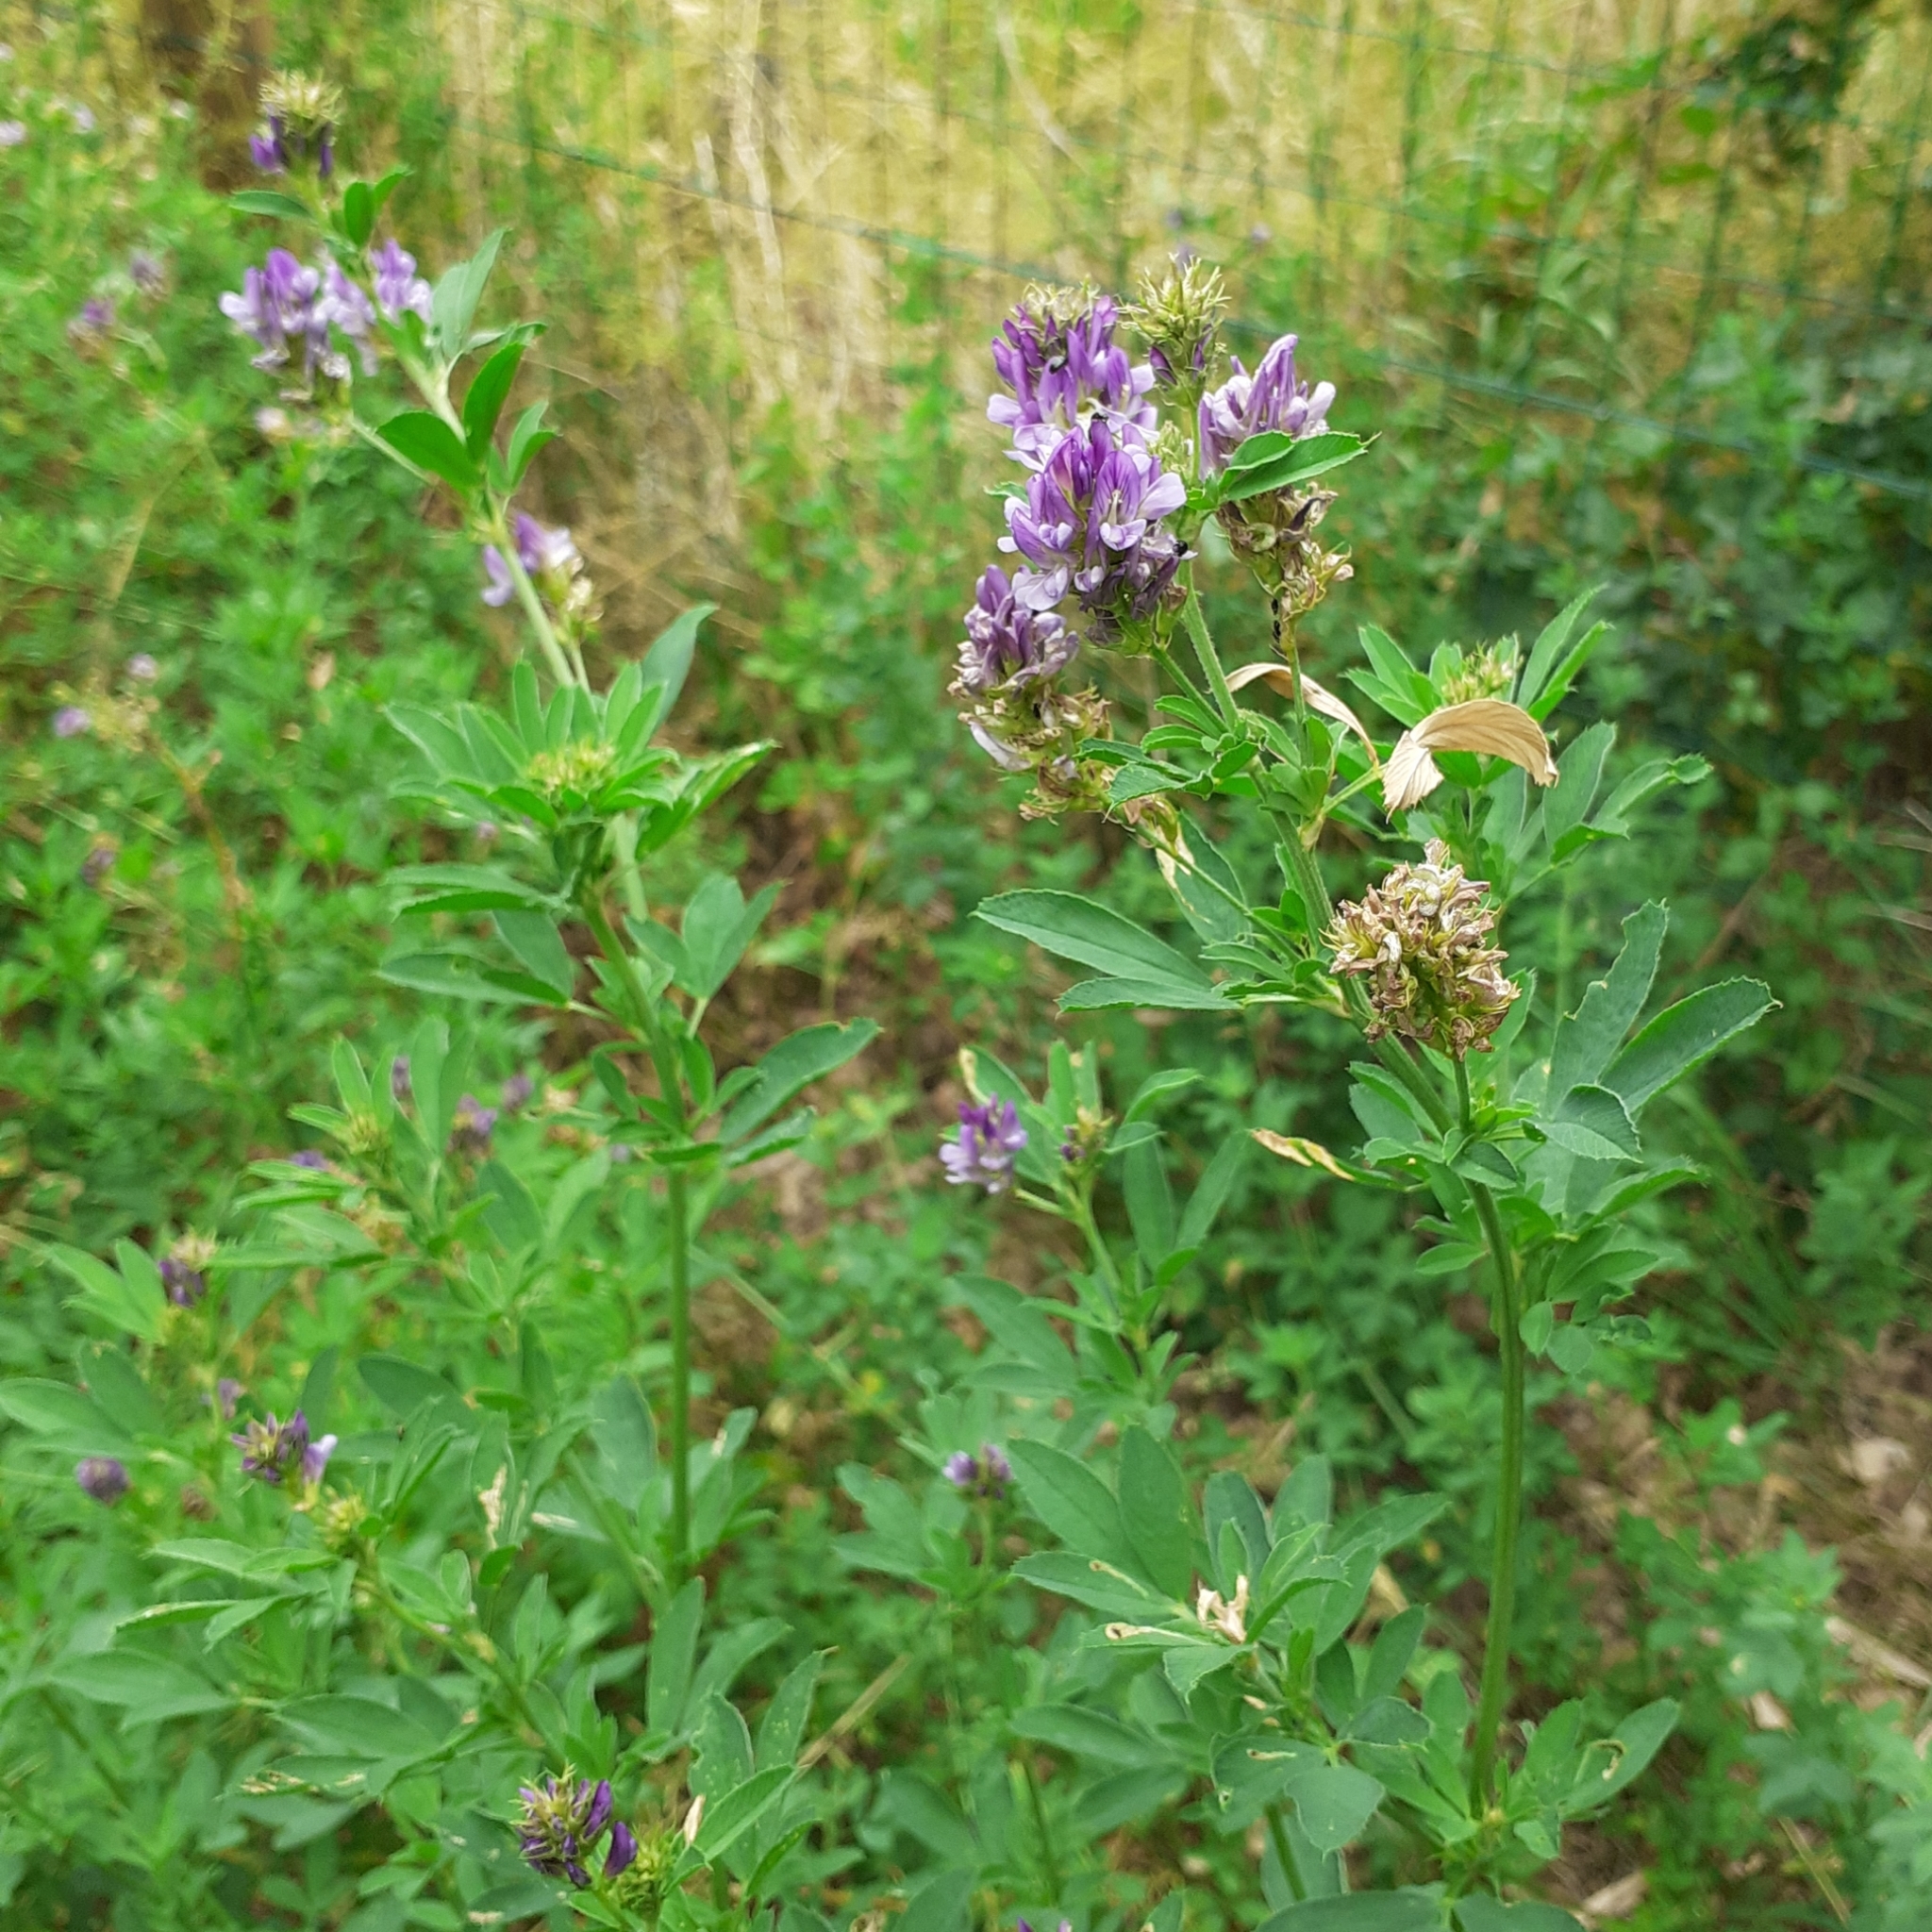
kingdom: Plantae
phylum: Tracheophyta
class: Magnoliopsida
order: Fabales
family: Fabaceae
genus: Medicago
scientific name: Medicago sativa
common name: Alfalfa
